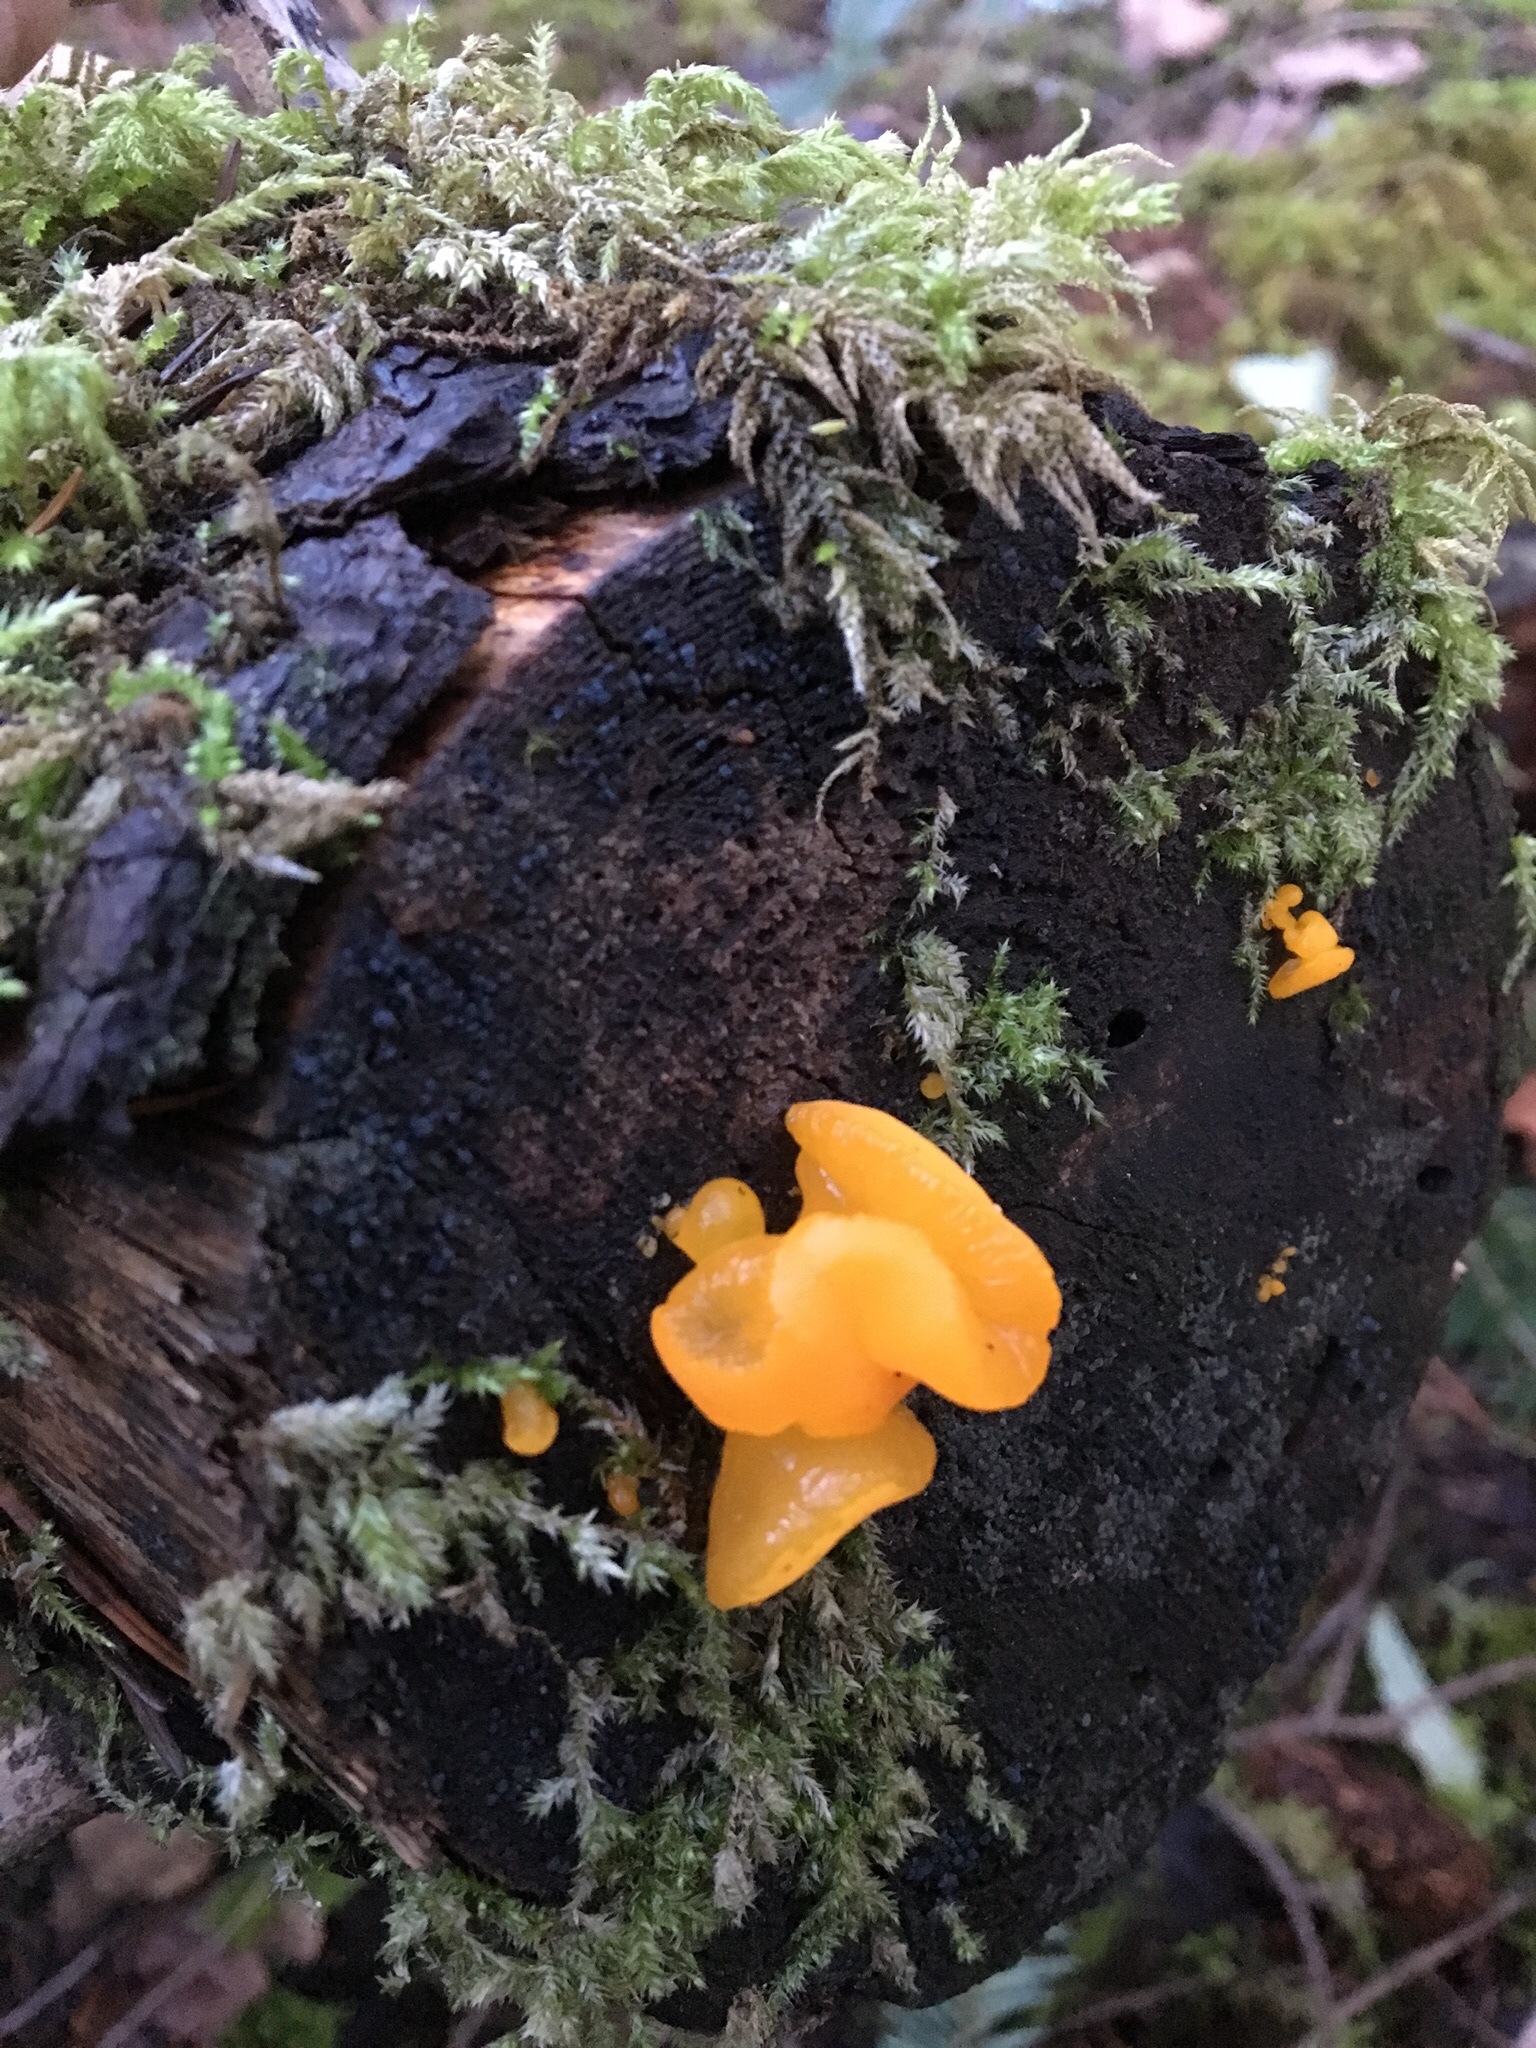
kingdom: Fungi
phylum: Basidiomycota
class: Tremellomycetes
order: Tremellales
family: Tremellaceae
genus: Tremella
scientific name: Tremella mesenterica
